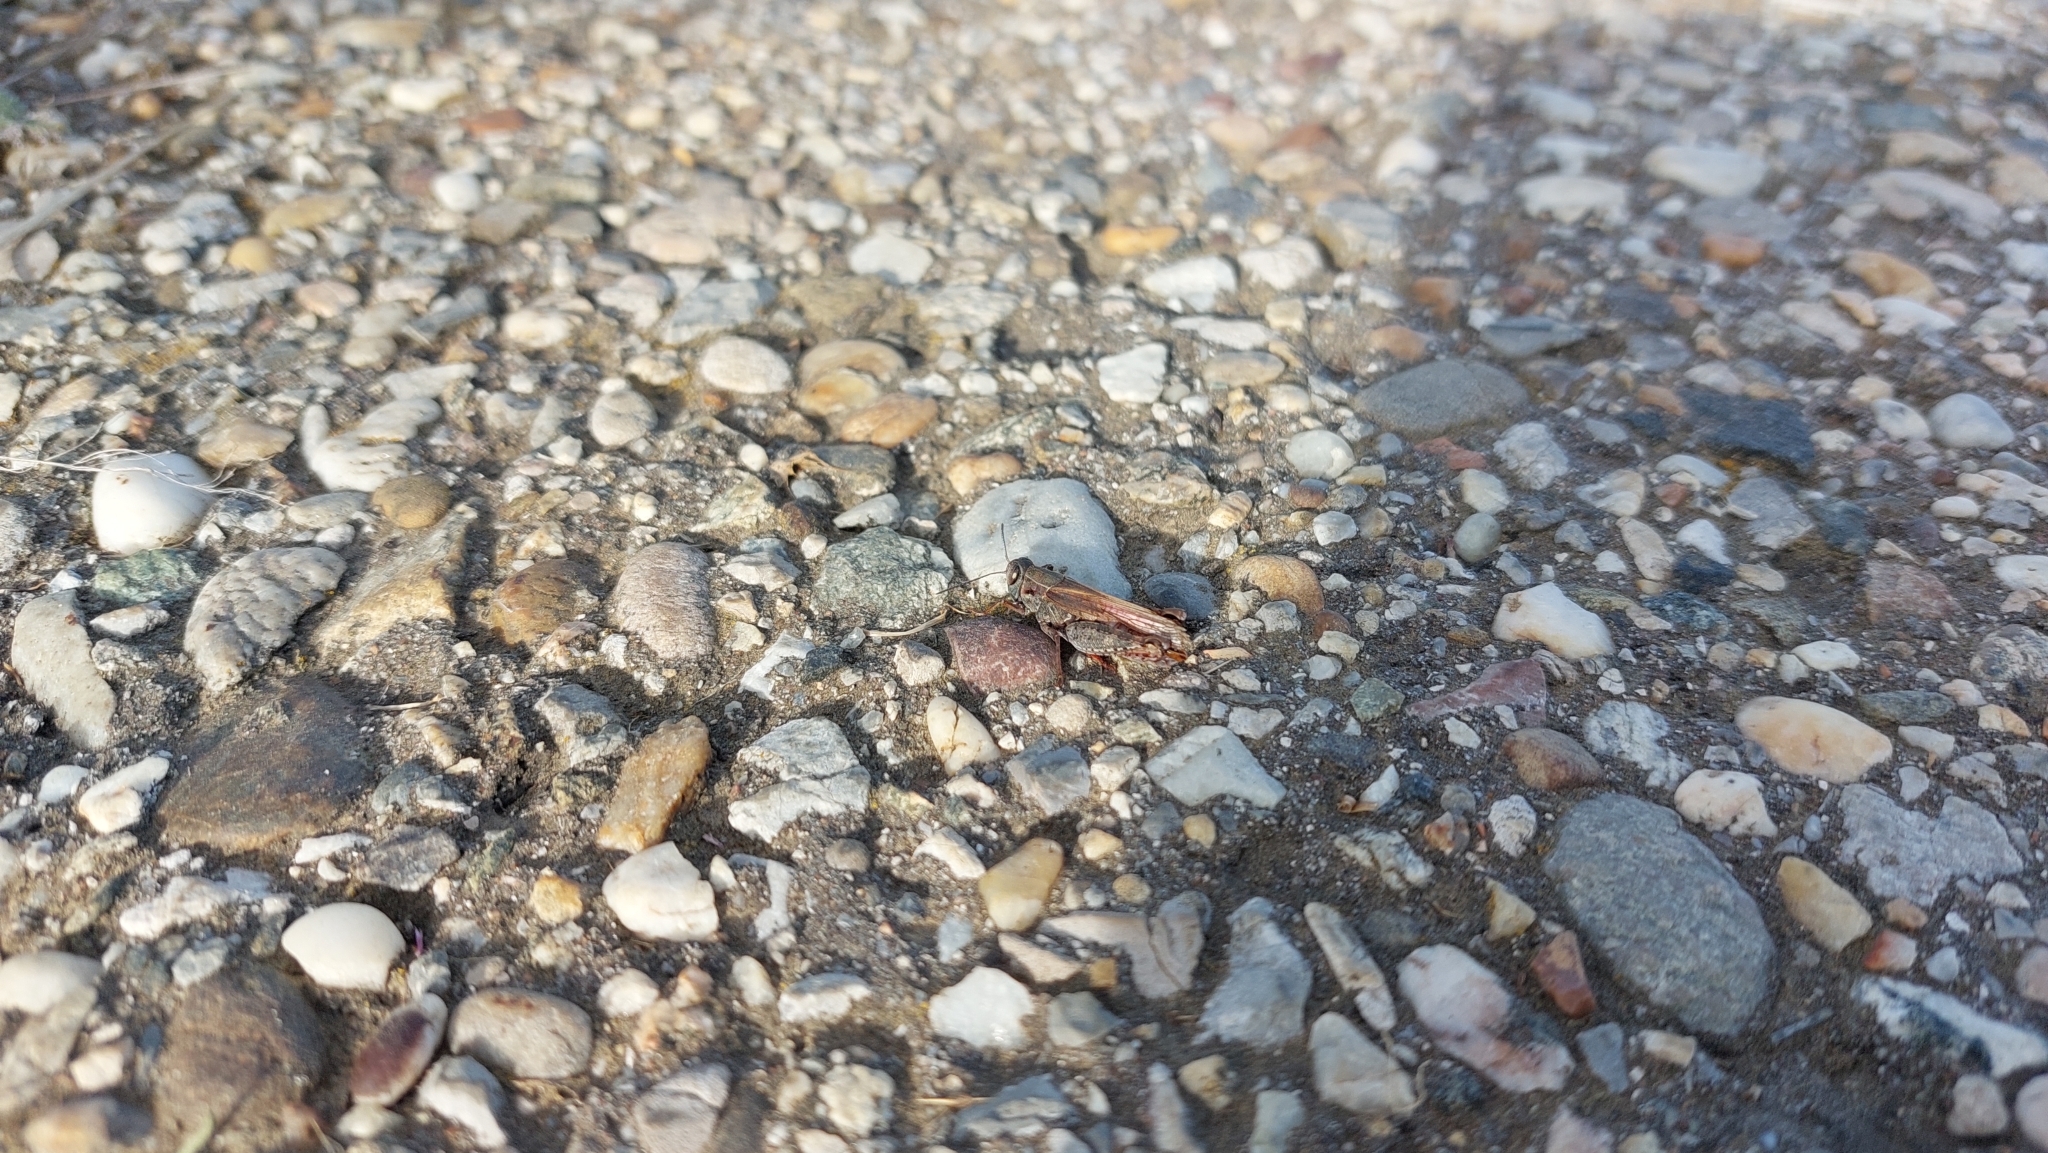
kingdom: Animalia
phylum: Arthropoda
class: Insecta
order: Orthoptera
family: Acrididae
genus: Calliptamus
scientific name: Calliptamus italicus
